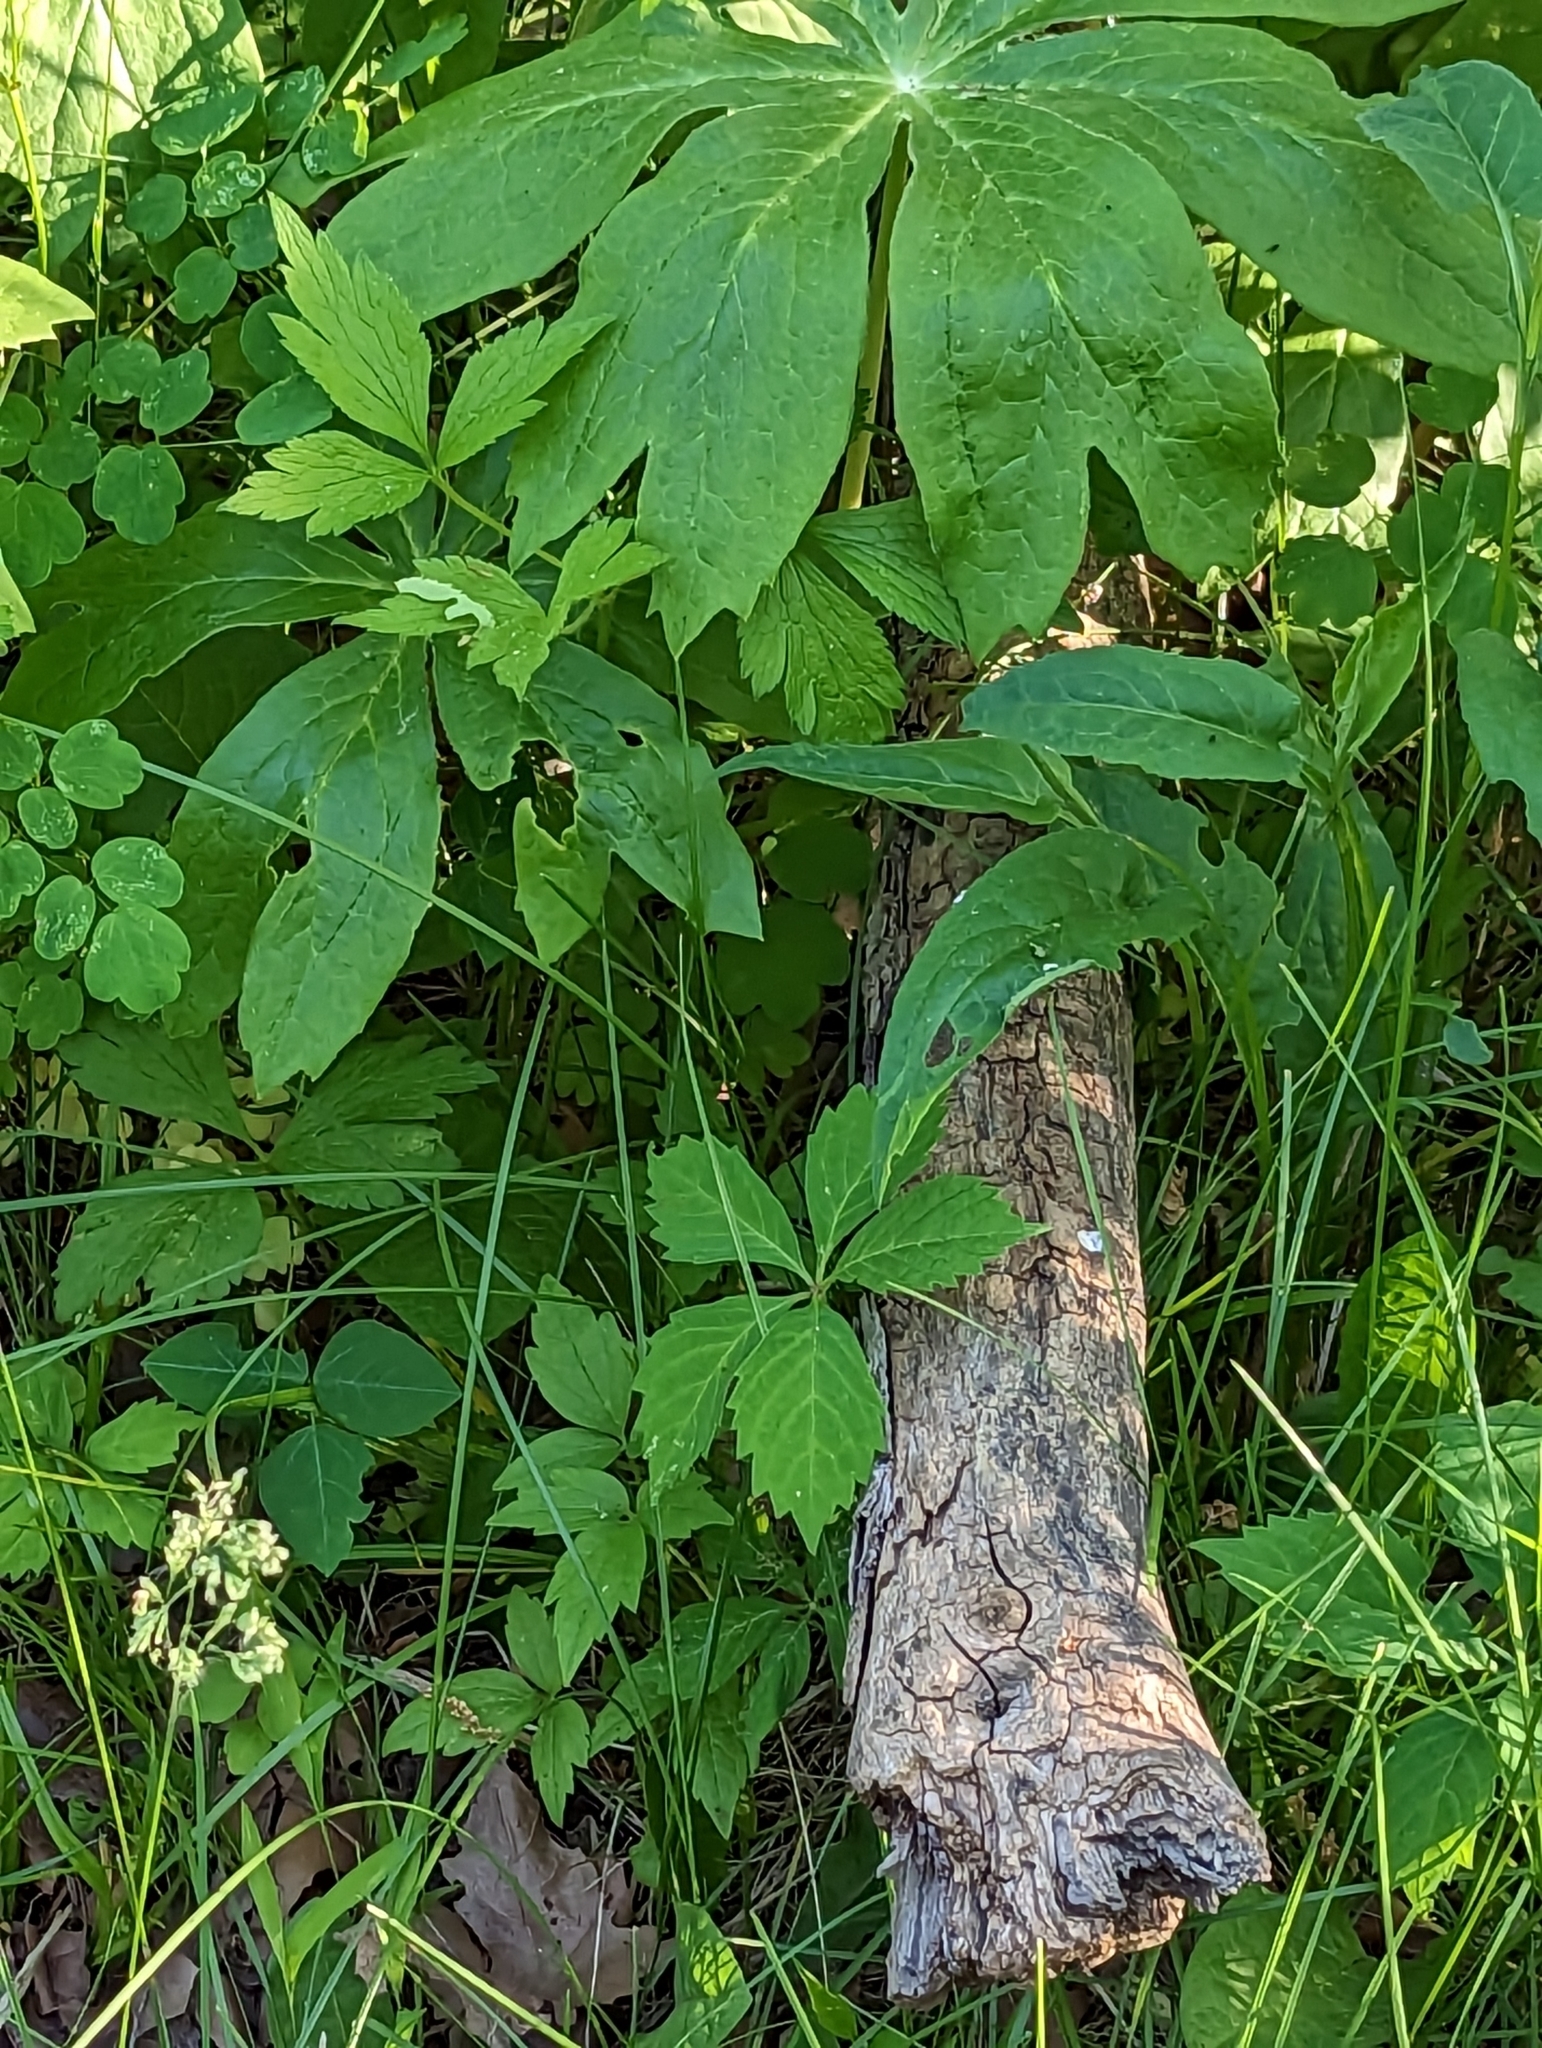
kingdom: Plantae
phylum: Tracheophyta
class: Magnoliopsida
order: Ranunculales
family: Berberidaceae
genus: Podophyllum
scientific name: Podophyllum peltatum
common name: Wild mandrake
